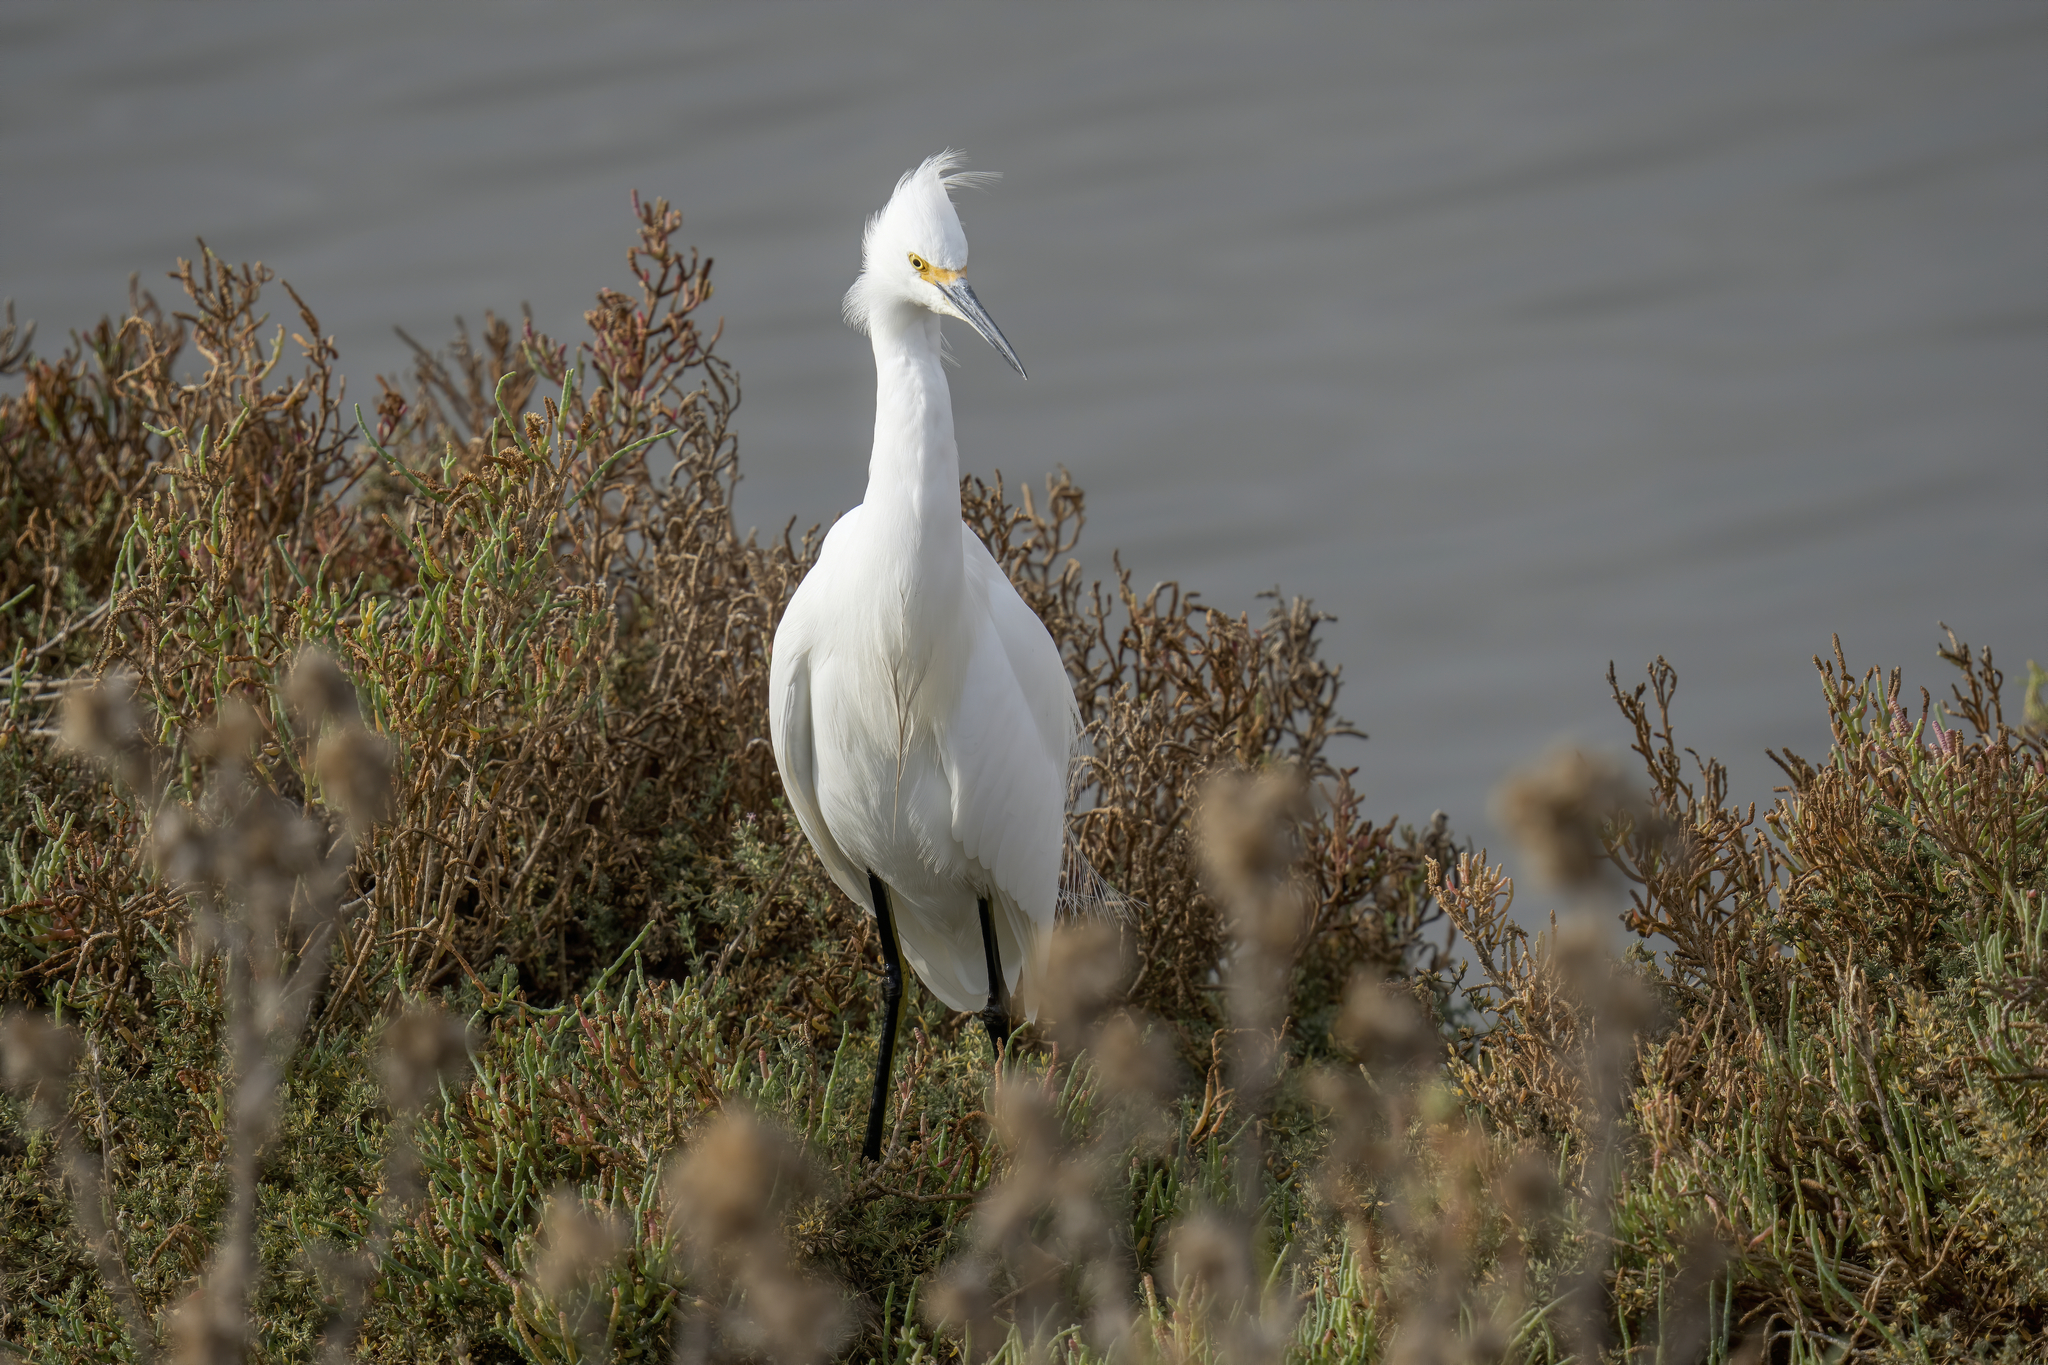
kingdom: Animalia
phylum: Chordata
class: Aves
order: Pelecaniformes
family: Ardeidae
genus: Egretta
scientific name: Egretta thula
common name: Snowy egret
